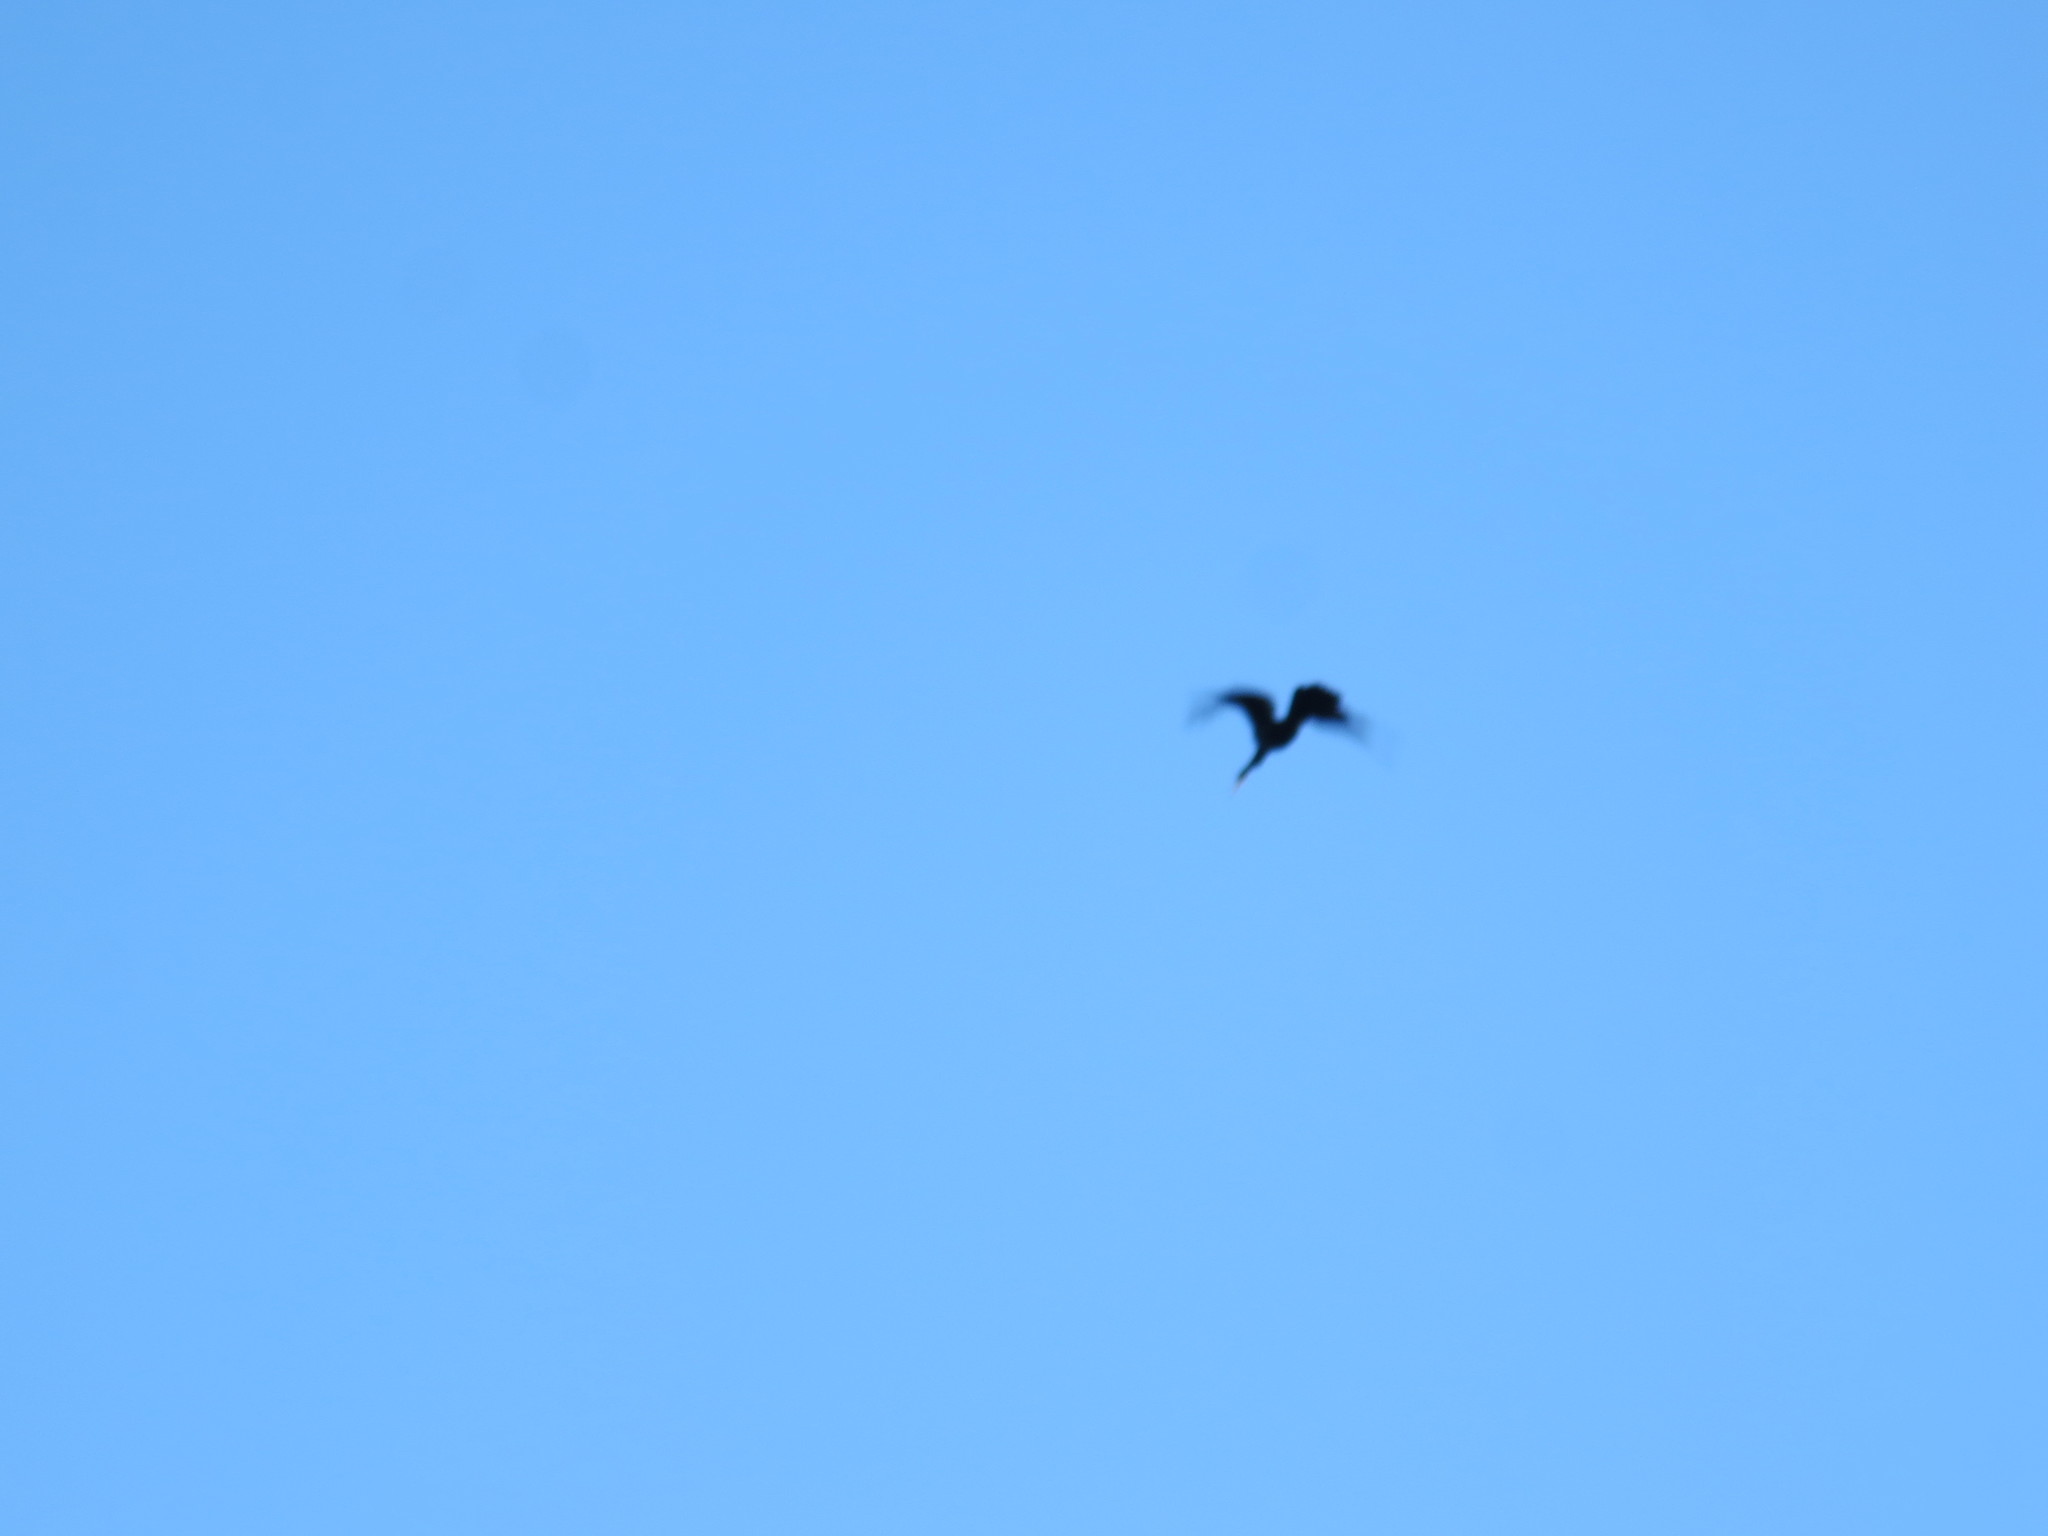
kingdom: Animalia
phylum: Chordata
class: Aves
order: Suliformes
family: Anhingidae
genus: Anhinga
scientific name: Anhinga anhinga
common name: Anhinga
